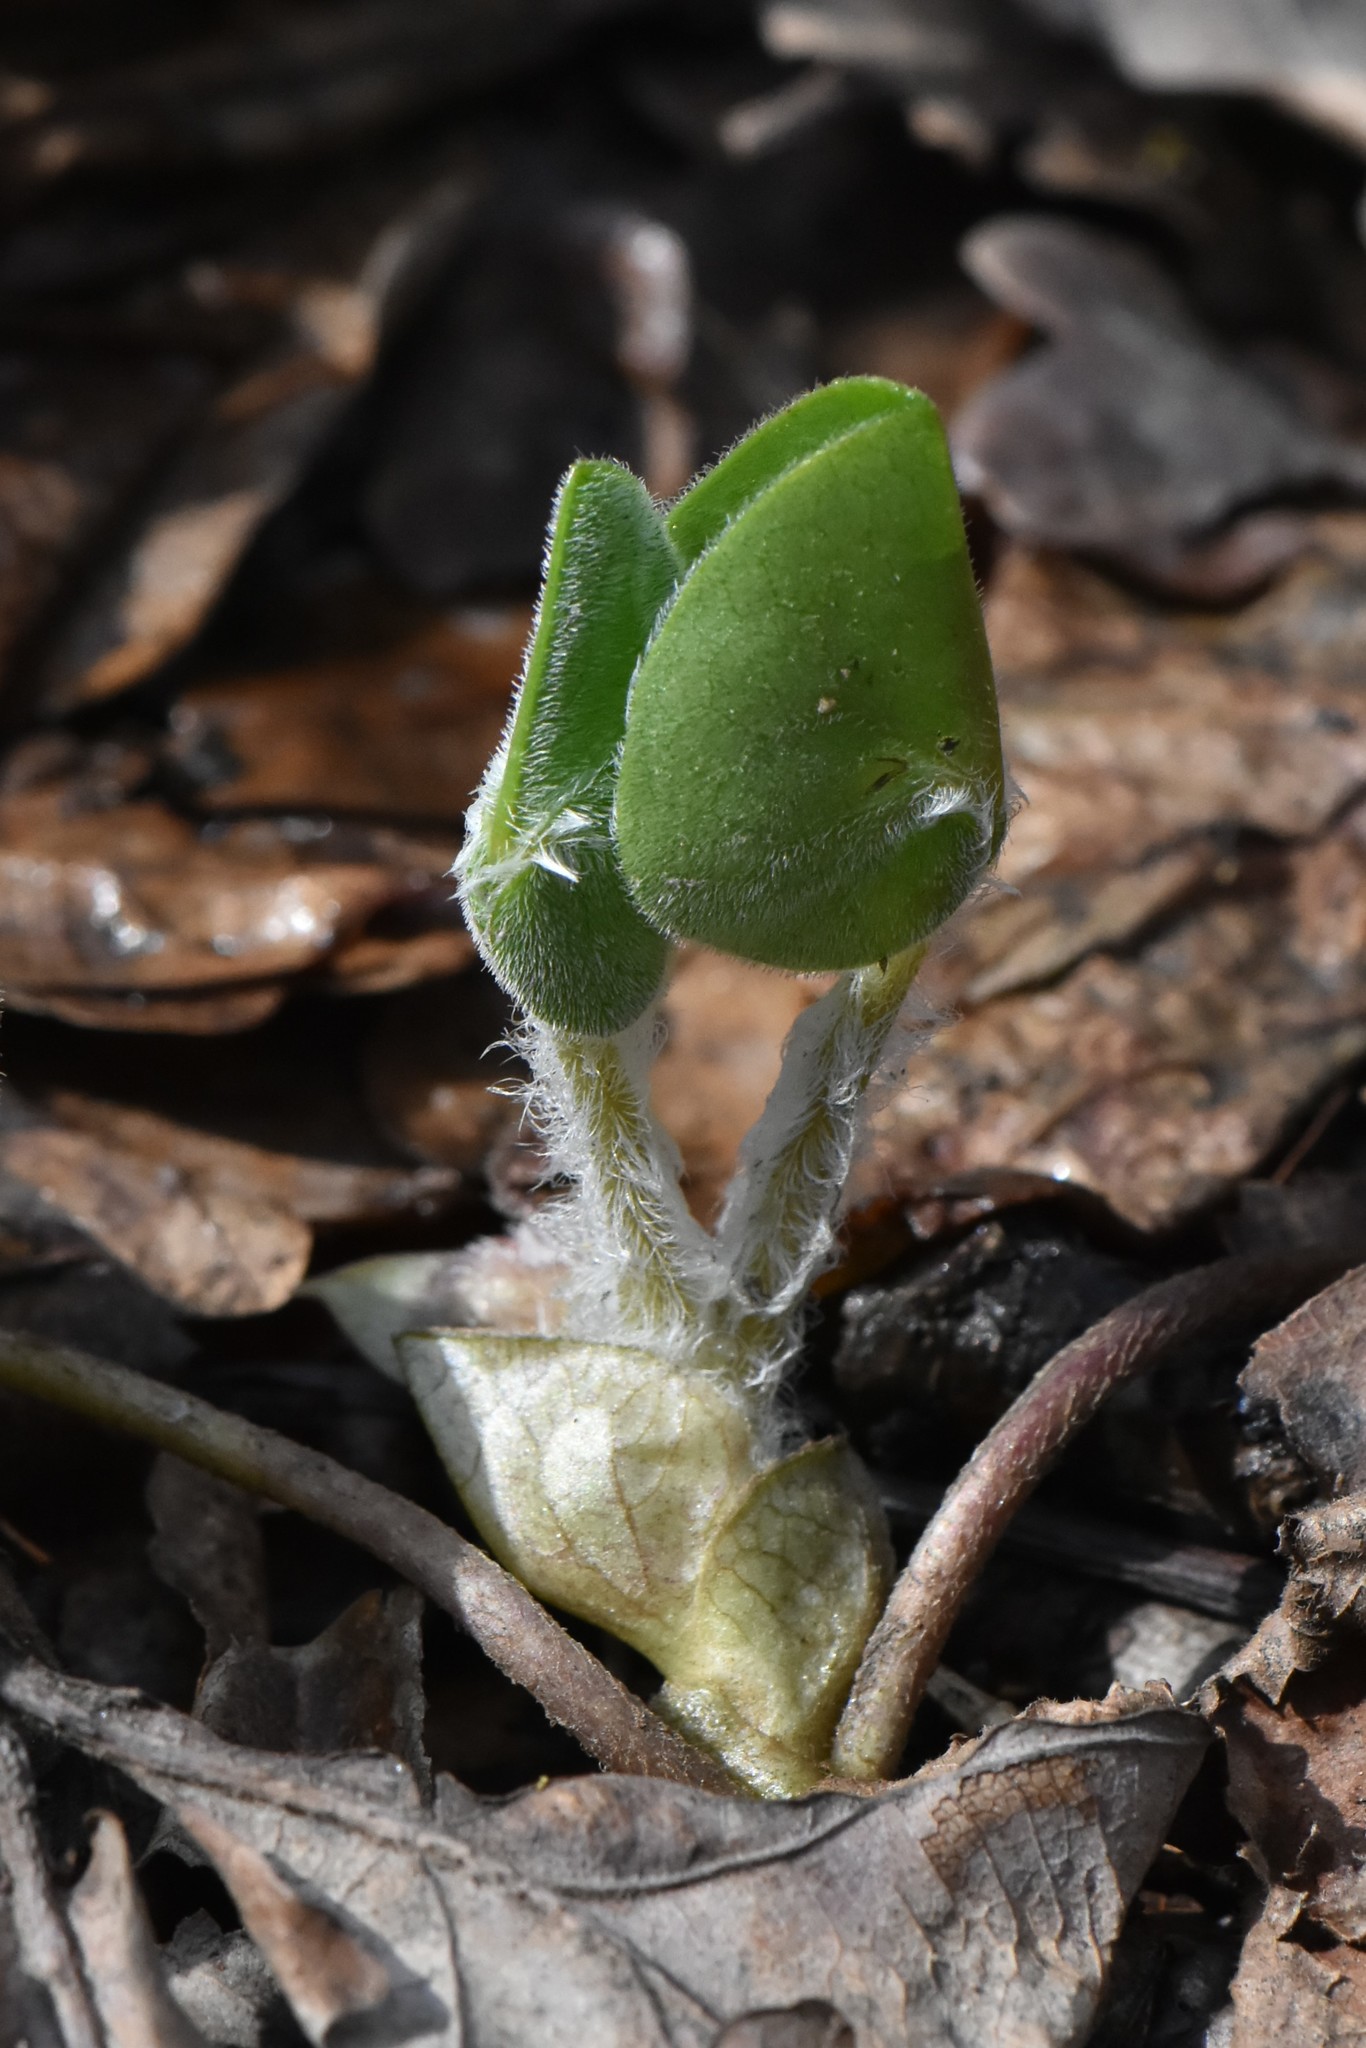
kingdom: Plantae
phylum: Tracheophyta
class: Magnoliopsida
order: Piperales
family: Aristolochiaceae
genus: Asarum
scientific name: Asarum europaeum
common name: Asarabacca
